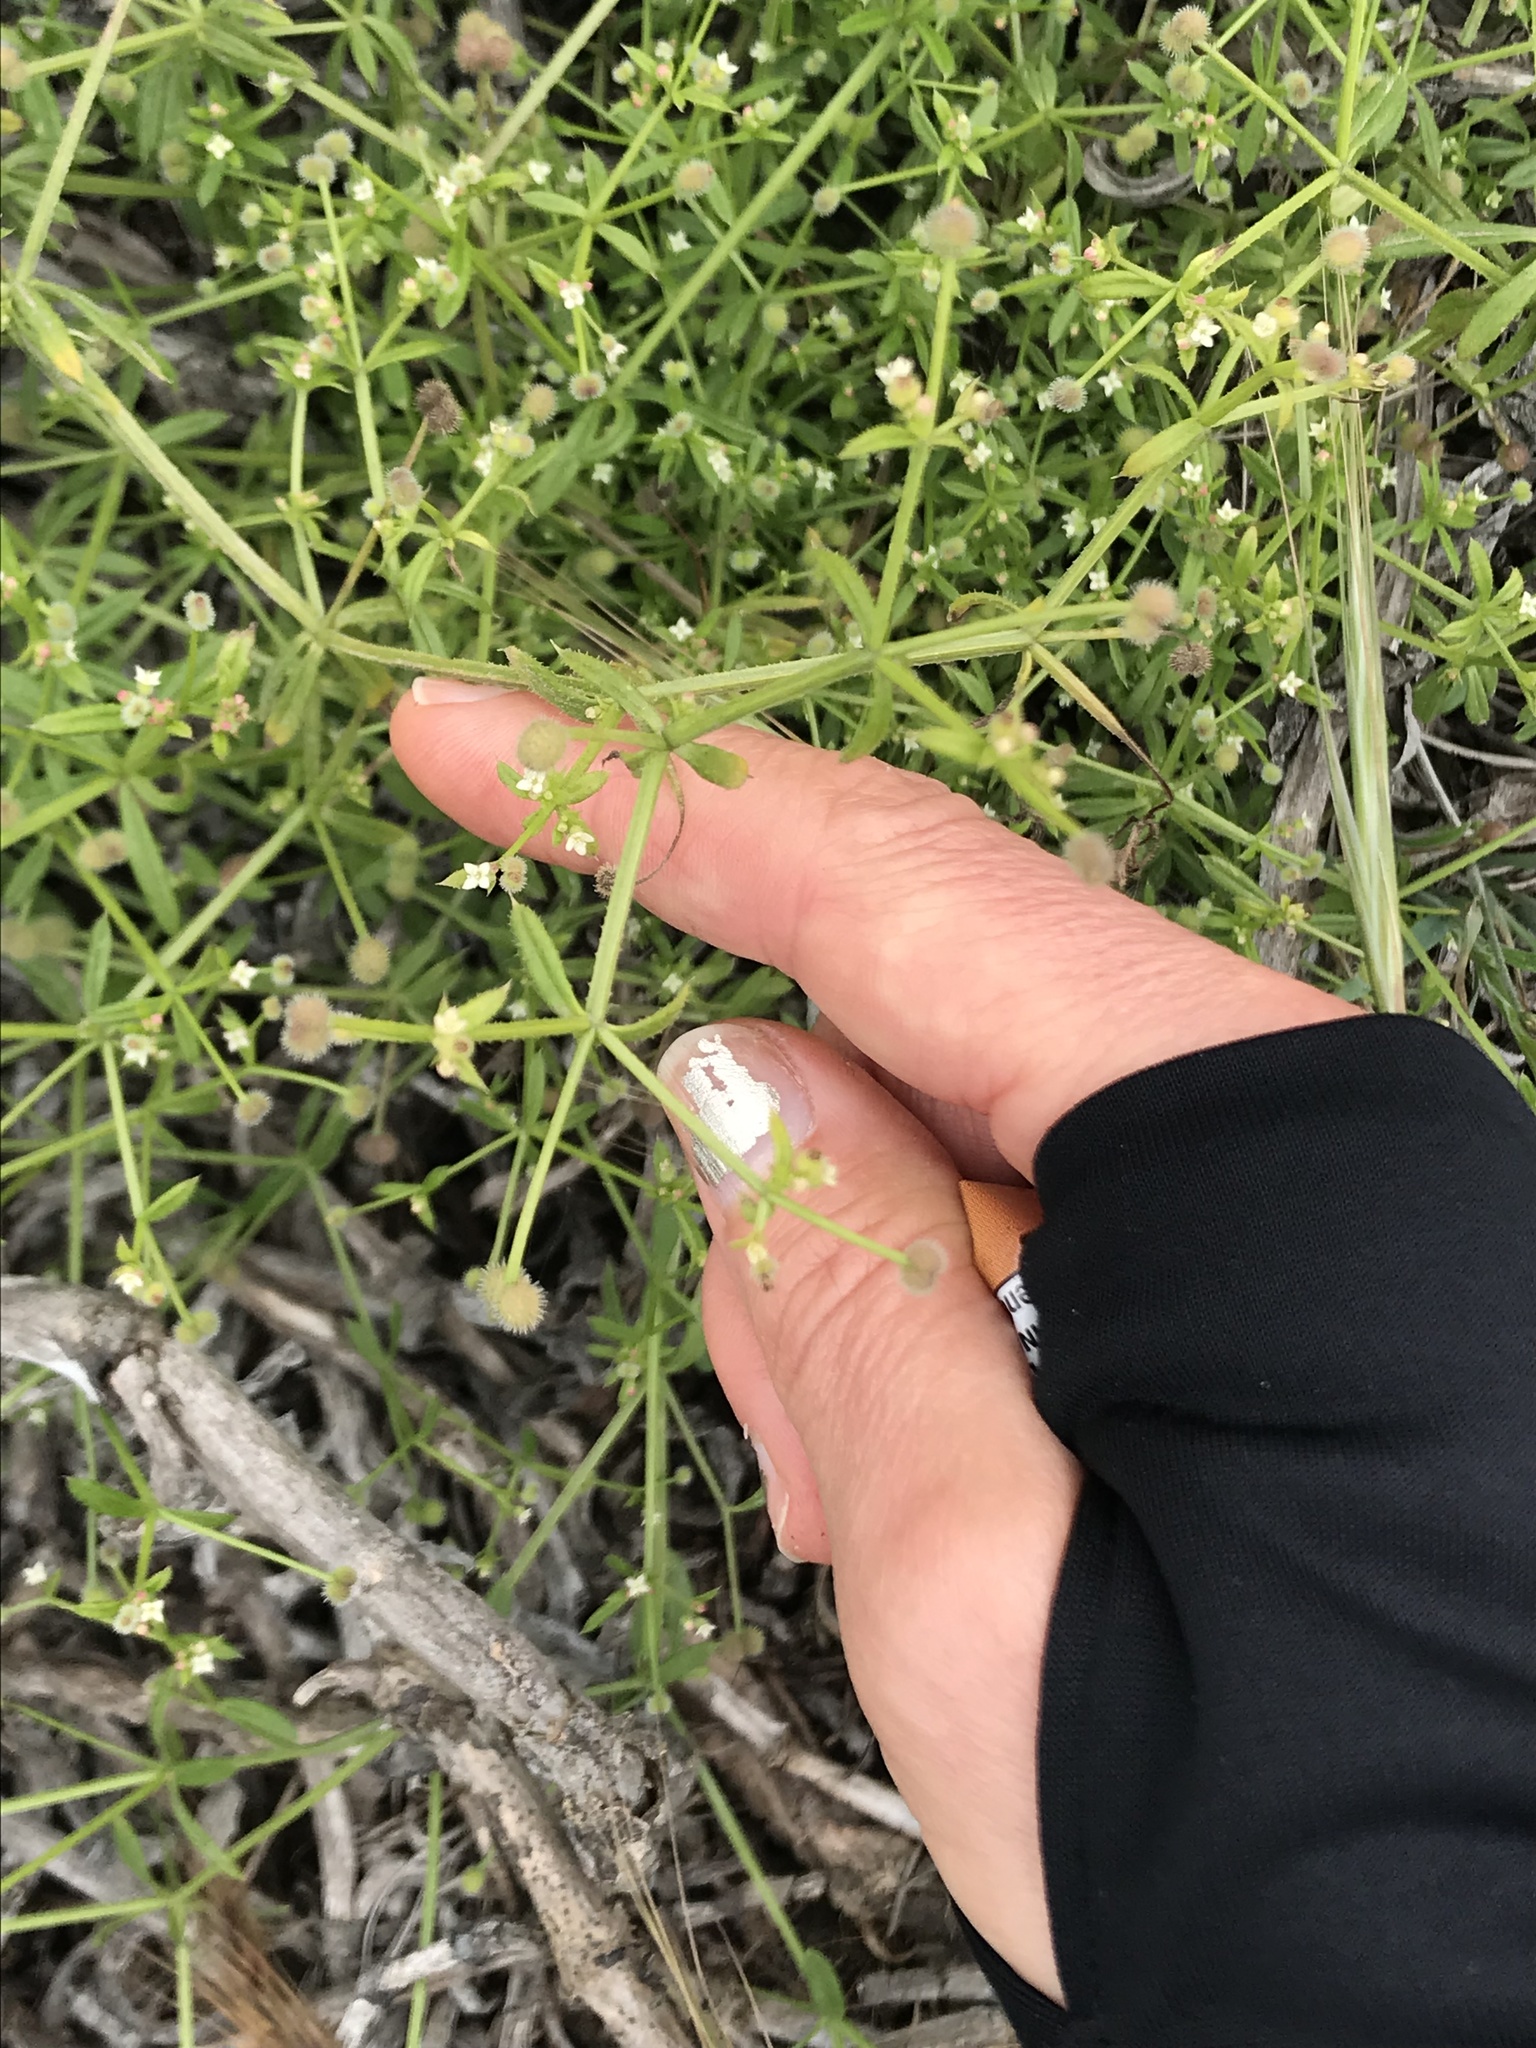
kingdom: Plantae
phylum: Tracheophyta
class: Magnoliopsida
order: Gentianales
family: Rubiaceae
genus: Galium
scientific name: Galium aparine
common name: Cleavers
